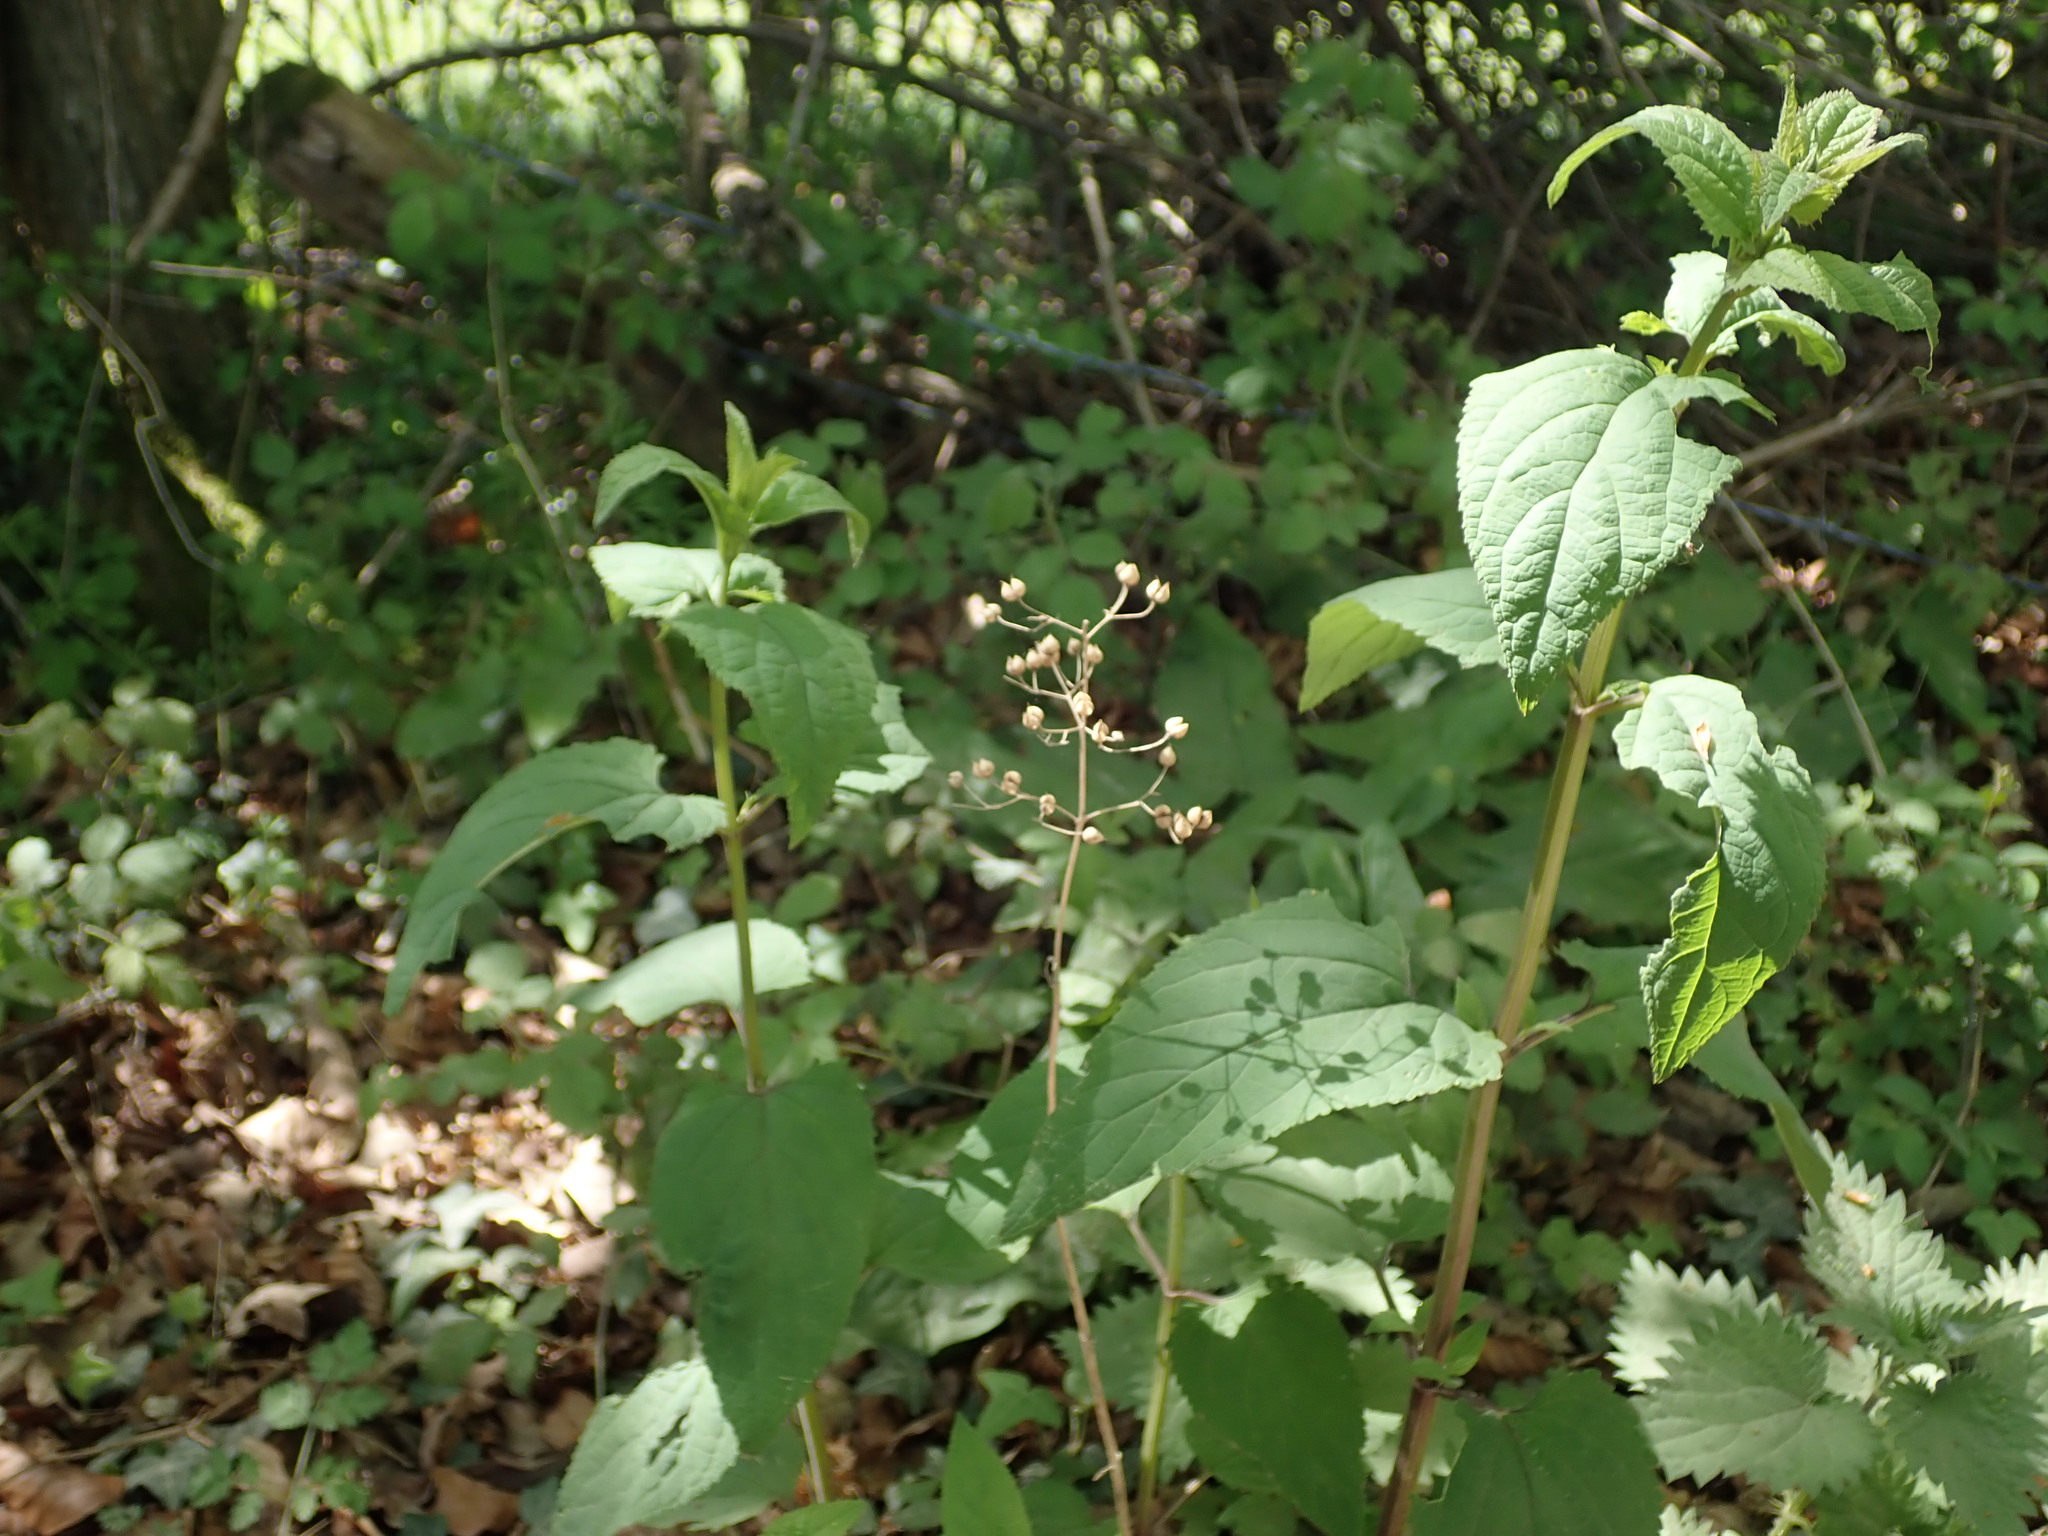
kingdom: Plantae
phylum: Tracheophyta
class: Magnoliopsida
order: Lamiales
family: Scrophulariaceae
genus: Scrophularia
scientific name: Scrophularia nodosa
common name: Common figwort
